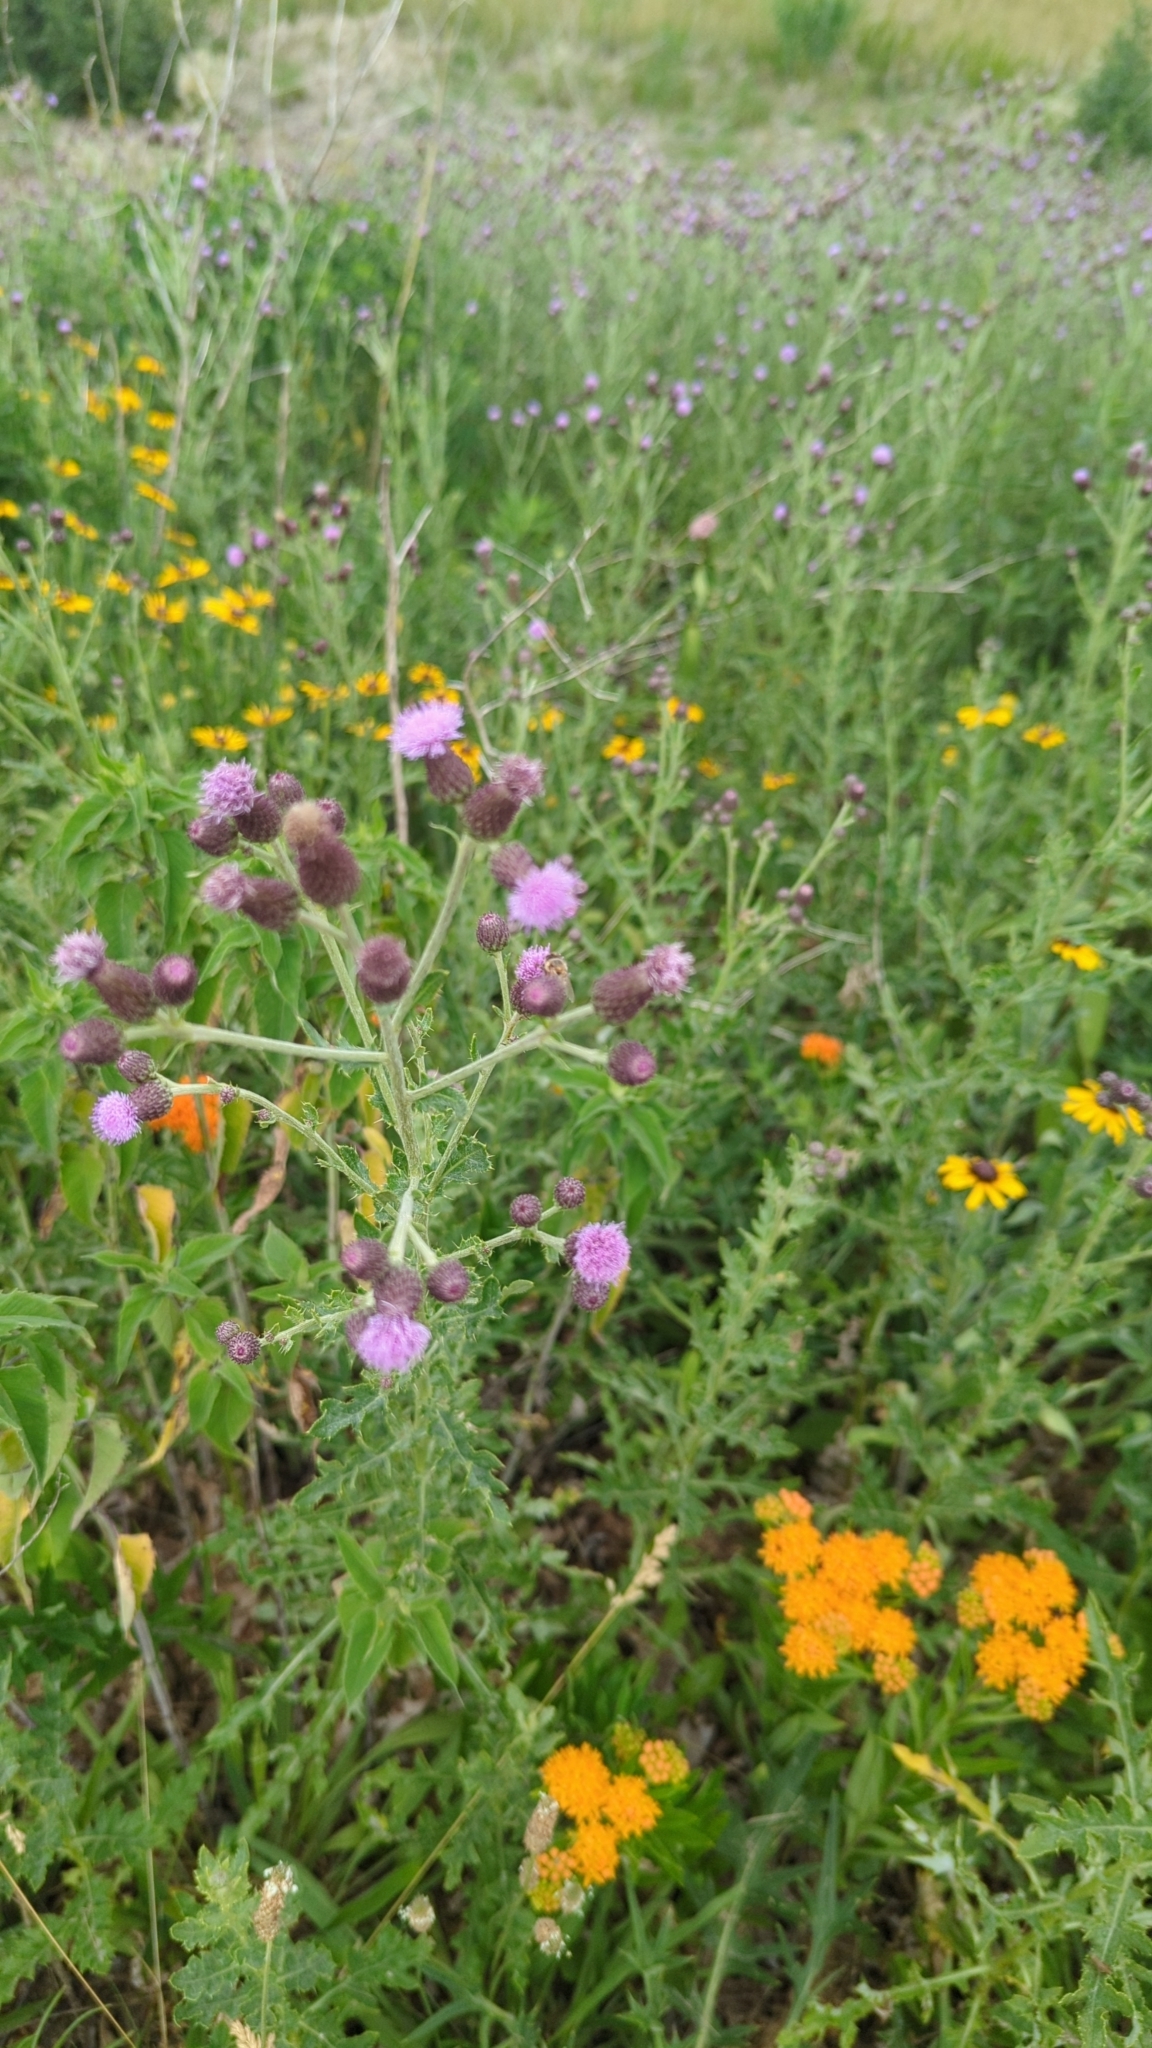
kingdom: Plantae
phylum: Tracheophyta
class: Magnoliopsida
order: Asterales
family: Asteraceae
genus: Cirsium
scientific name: Cirsium arvense
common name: Creeping thistle
